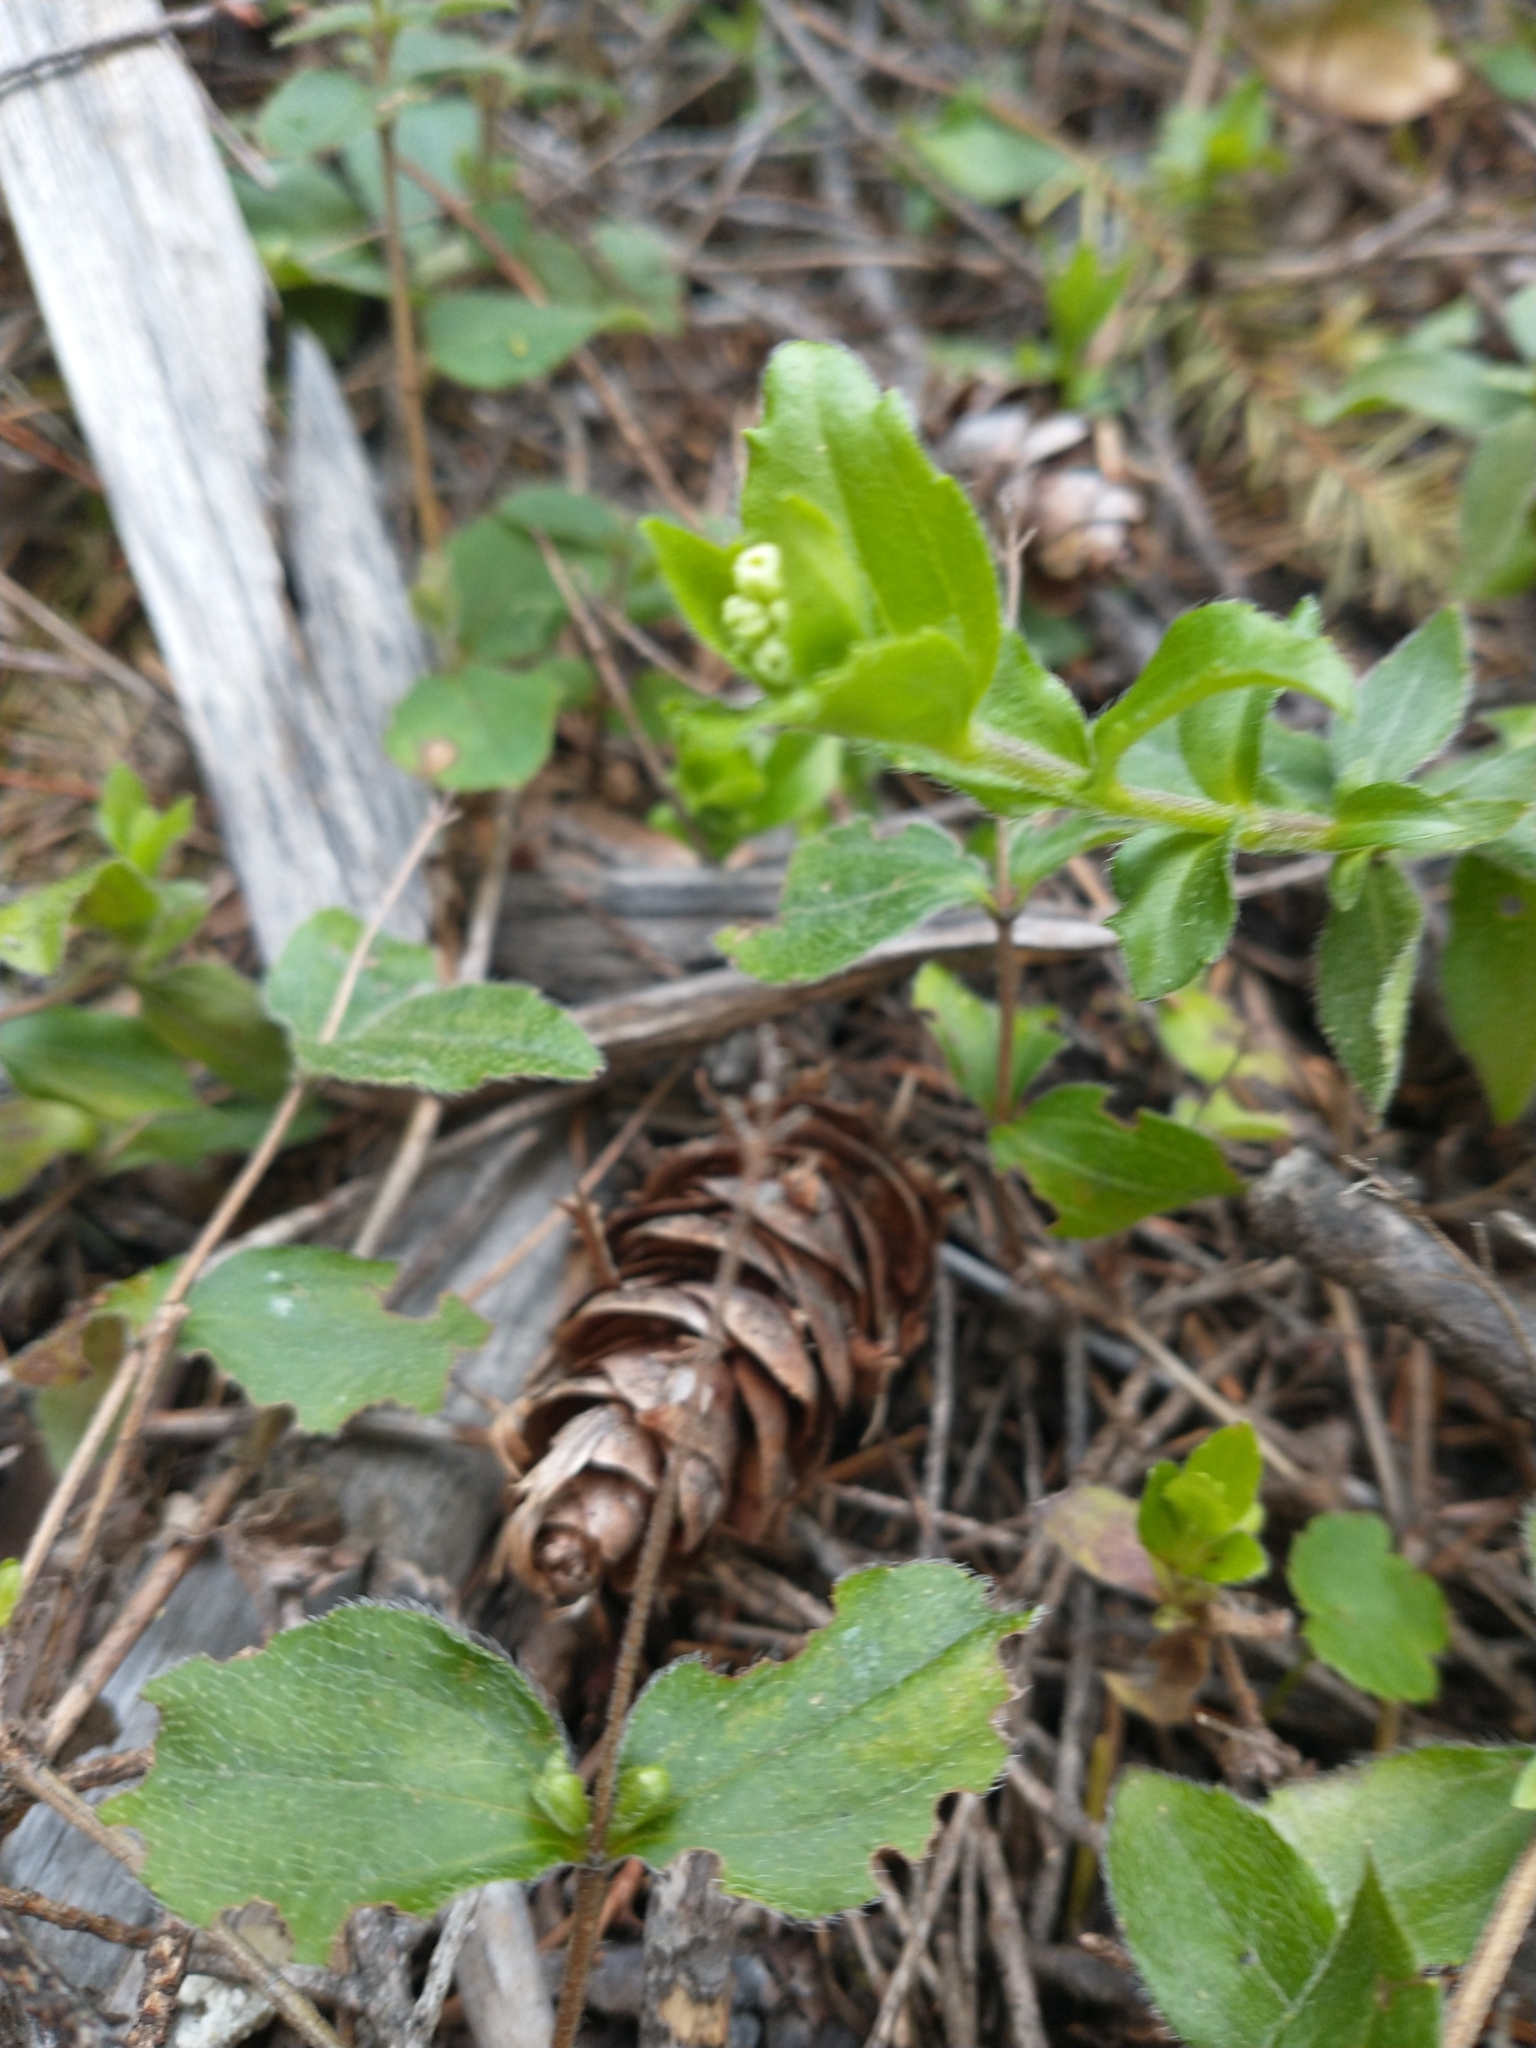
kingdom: Plantae
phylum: Tracheophyta
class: Magnoliopsida
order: Cornales
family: Hydrangeaceae
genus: Whipplea
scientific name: Whipplea modesta
